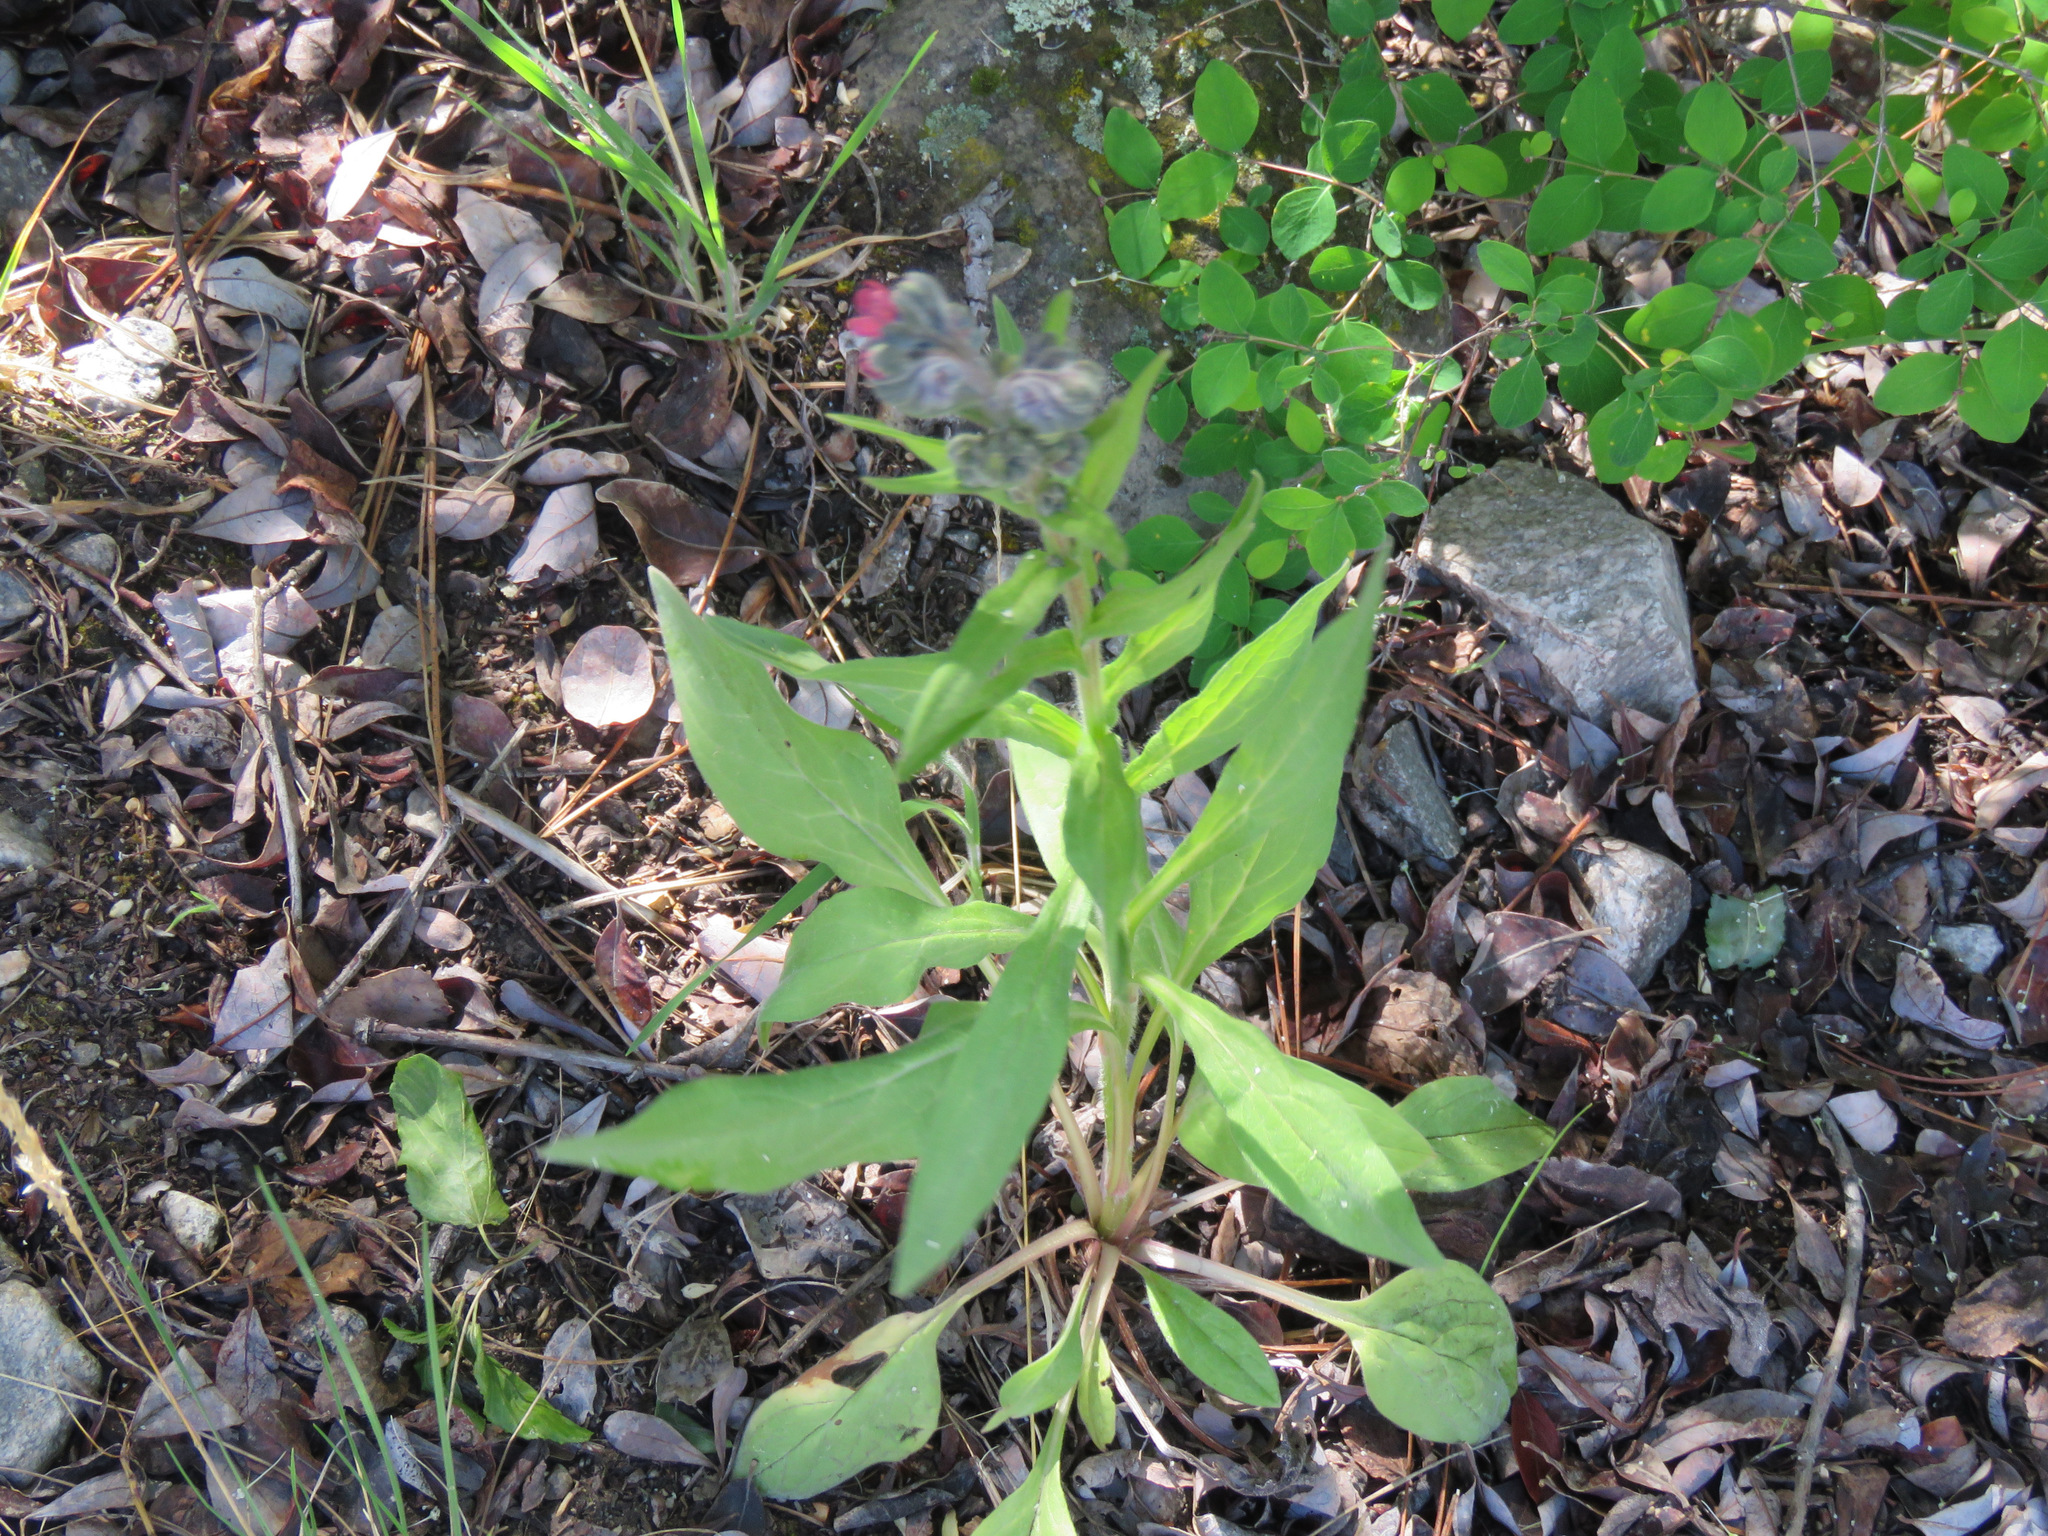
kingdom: Plantae
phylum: Tracheophyta
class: Magnoliopsida
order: Boraginales
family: Boraginaceae
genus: Cynoglossum
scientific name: Cynoglossum officinale
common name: Hound's-tongue
